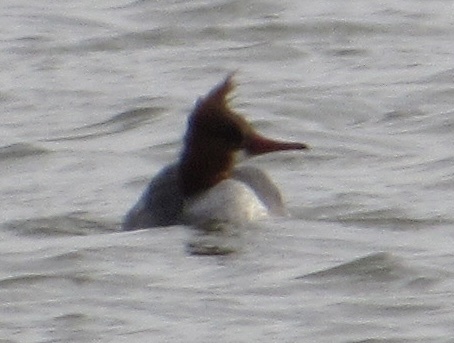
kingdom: Animalia
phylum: Chordata
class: Aves
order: Anseriformes
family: Anatidae
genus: Mergus
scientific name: Mergus merganser
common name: Common merganser
